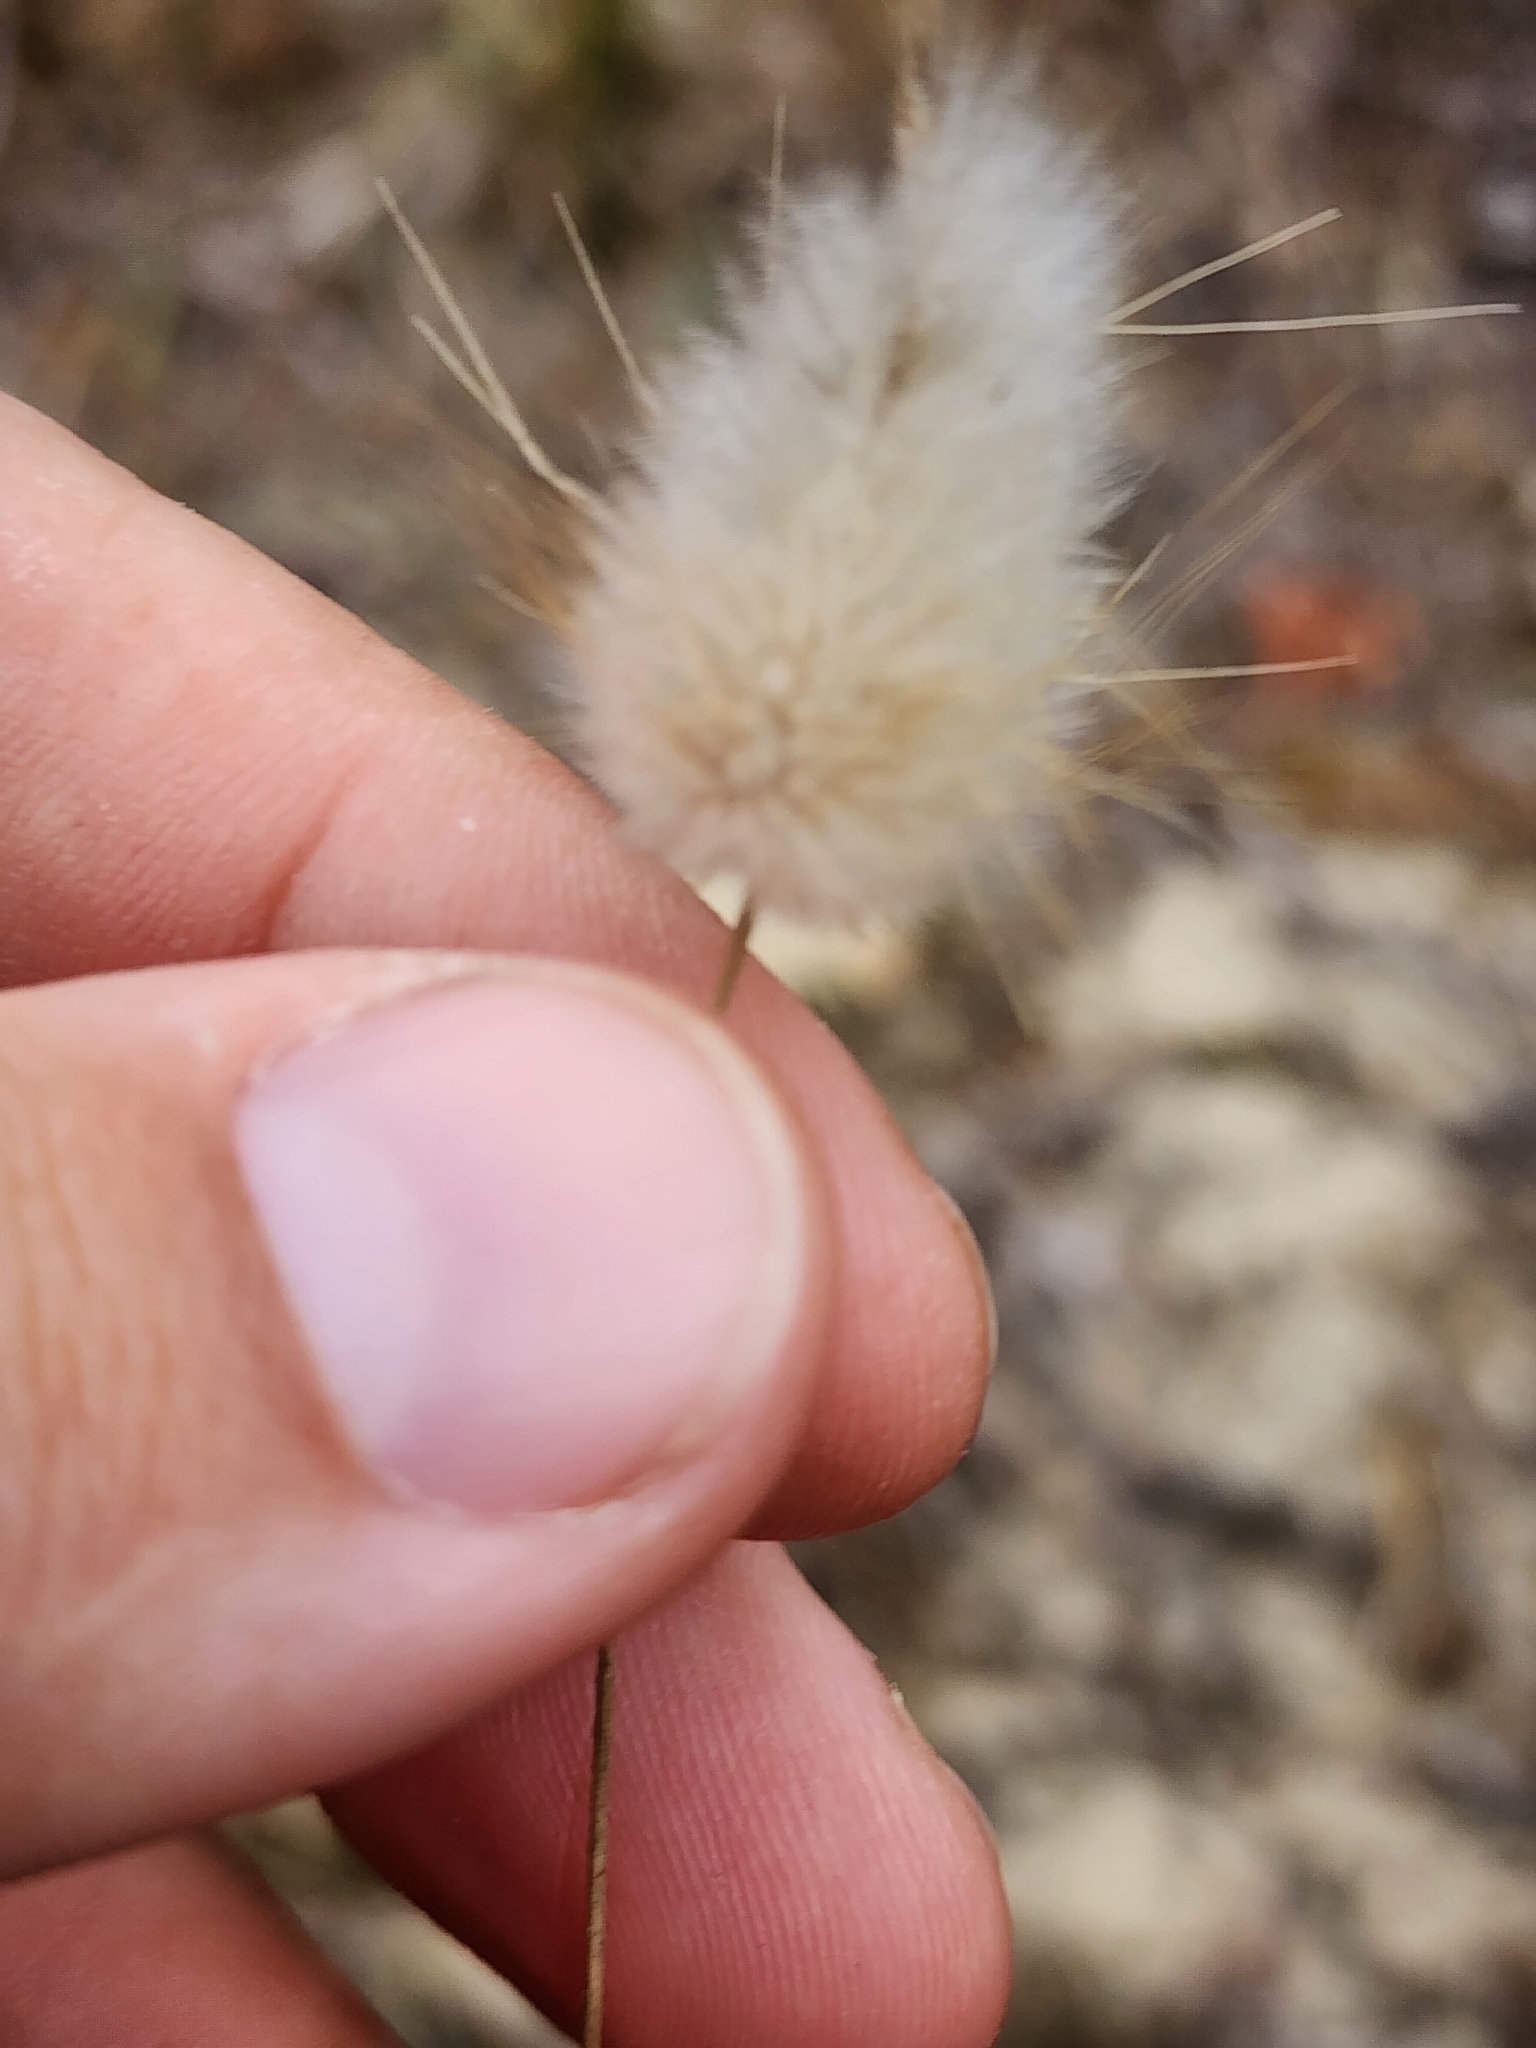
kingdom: Plantae
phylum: Tracheophyta
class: Liliopsida
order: Poales
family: Poaceae
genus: Lagurus
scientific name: Lagurus ovatus
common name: Hare's-tail
